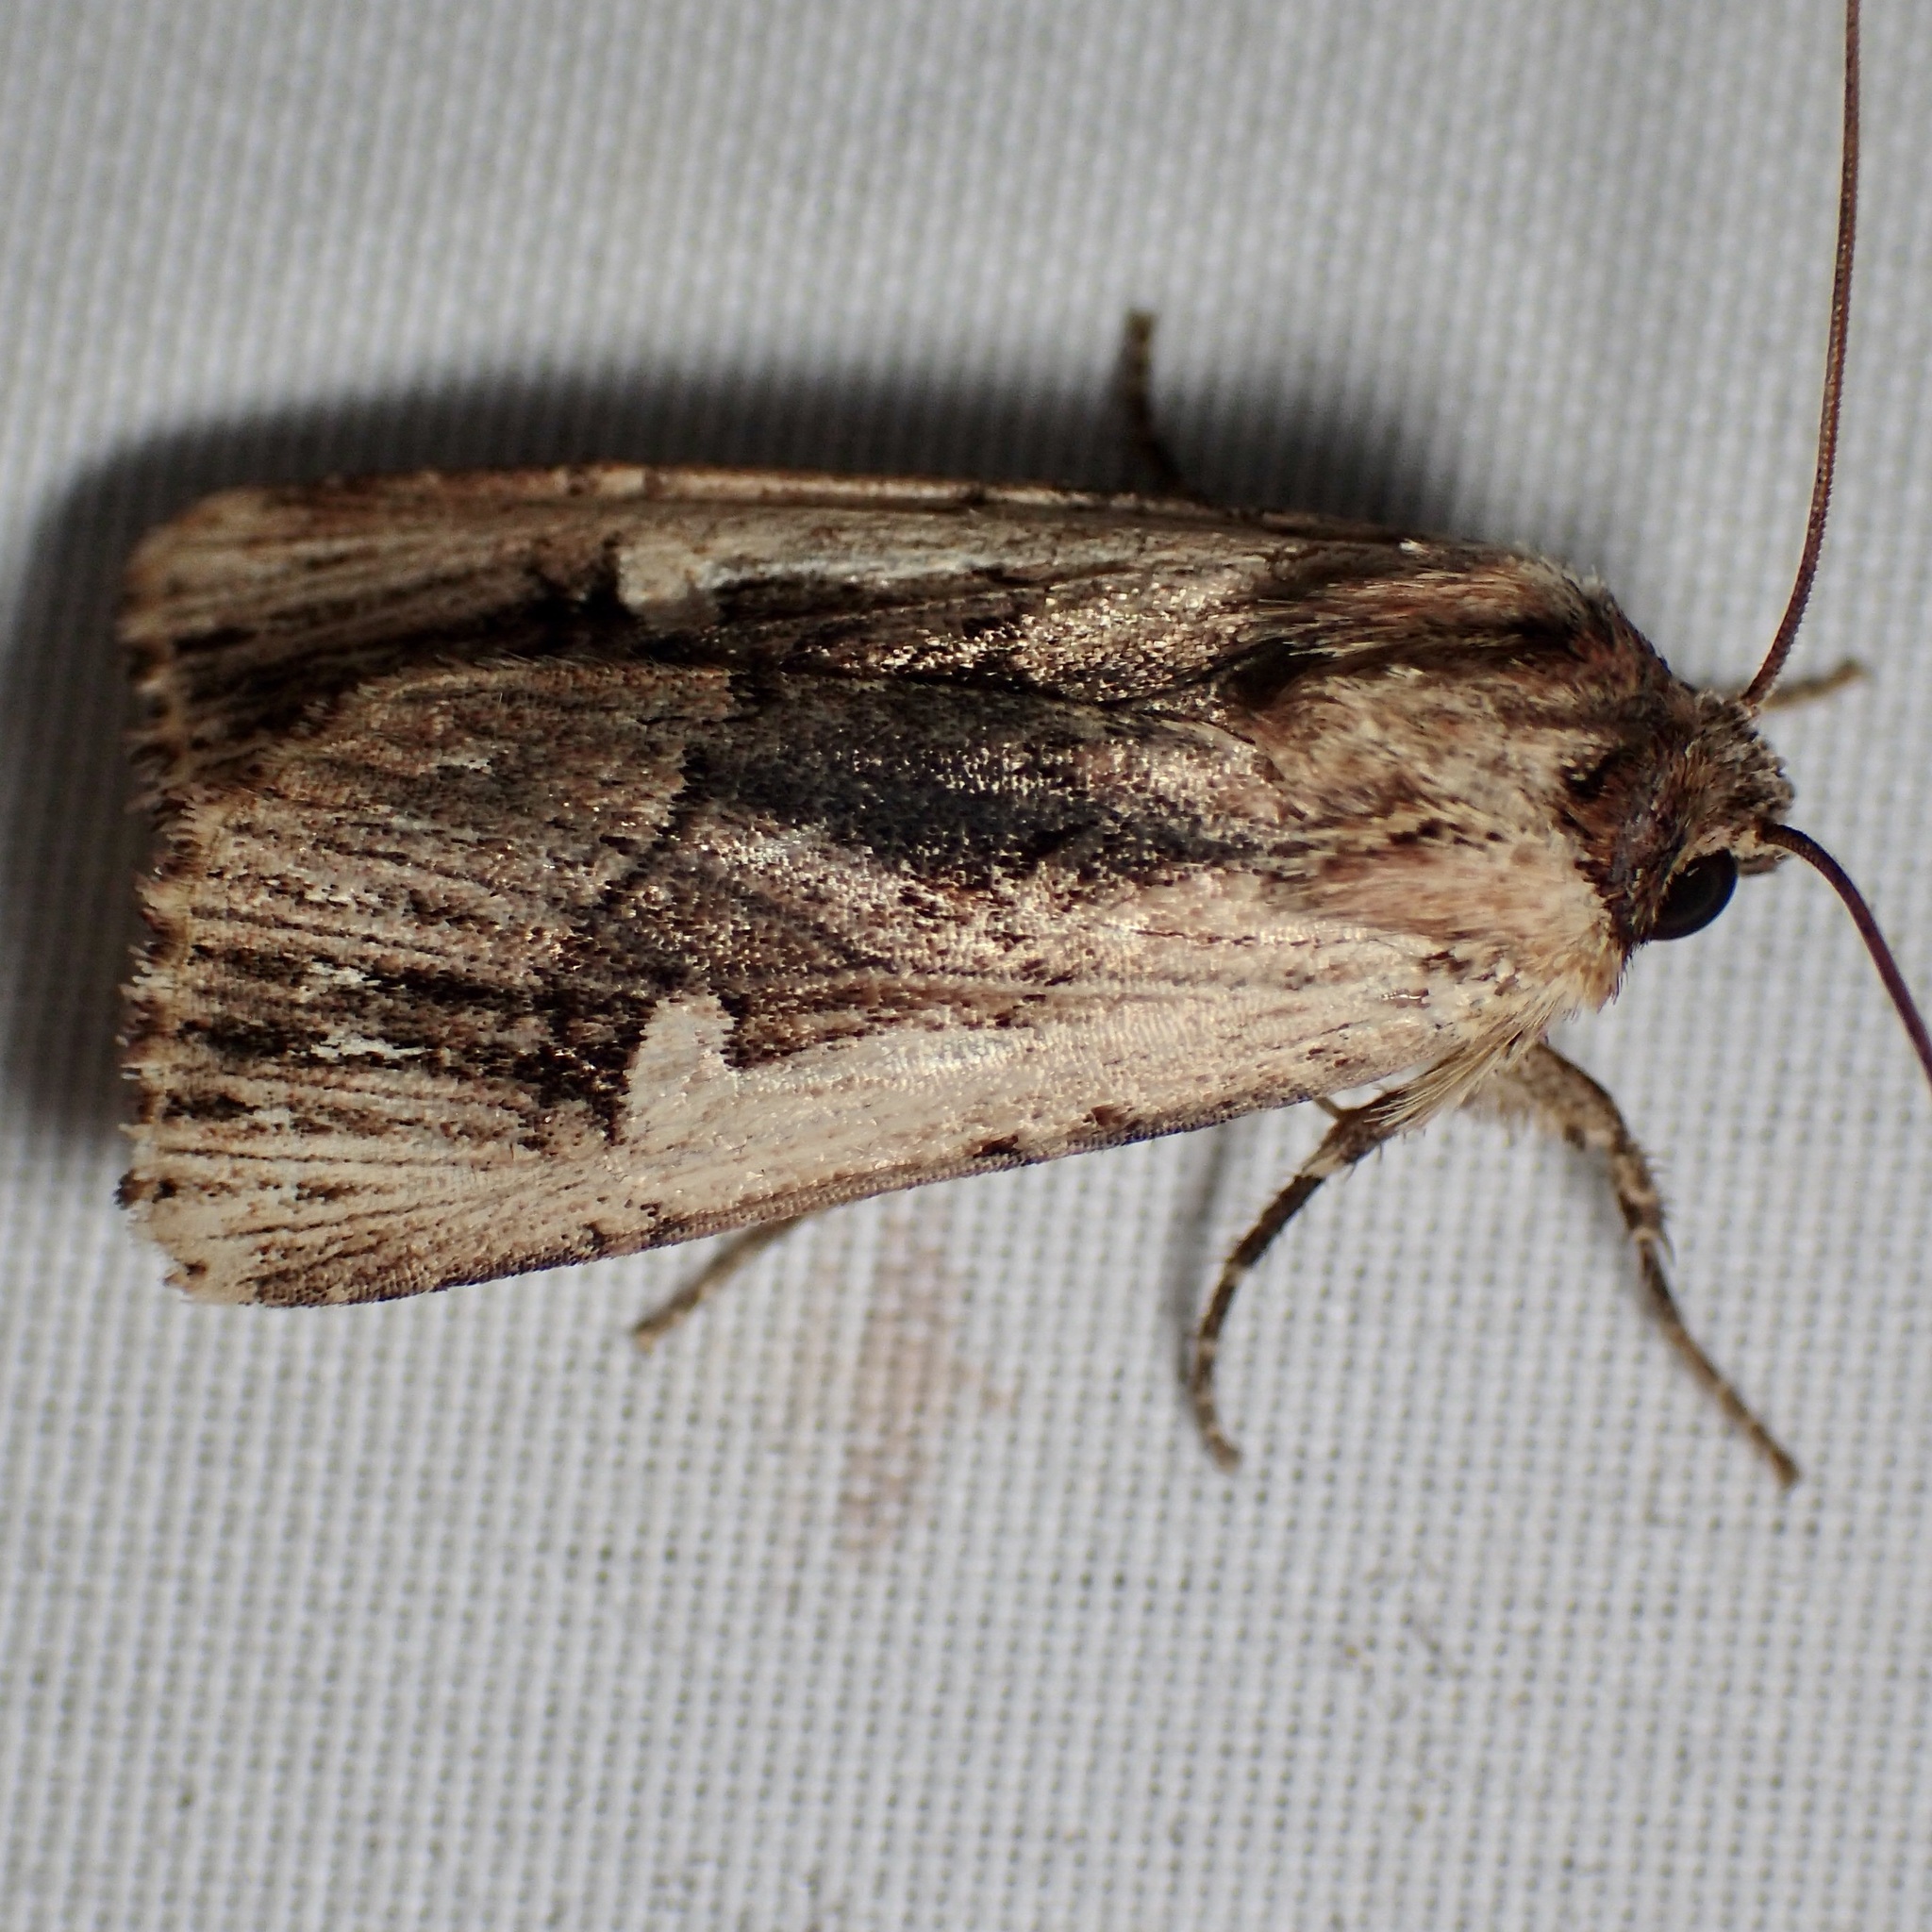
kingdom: Animalia
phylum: Arthropoda
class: Insecta
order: Lepidoptera
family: Noctuidae
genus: Dichagyris
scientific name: Dichagyris cataclivis
